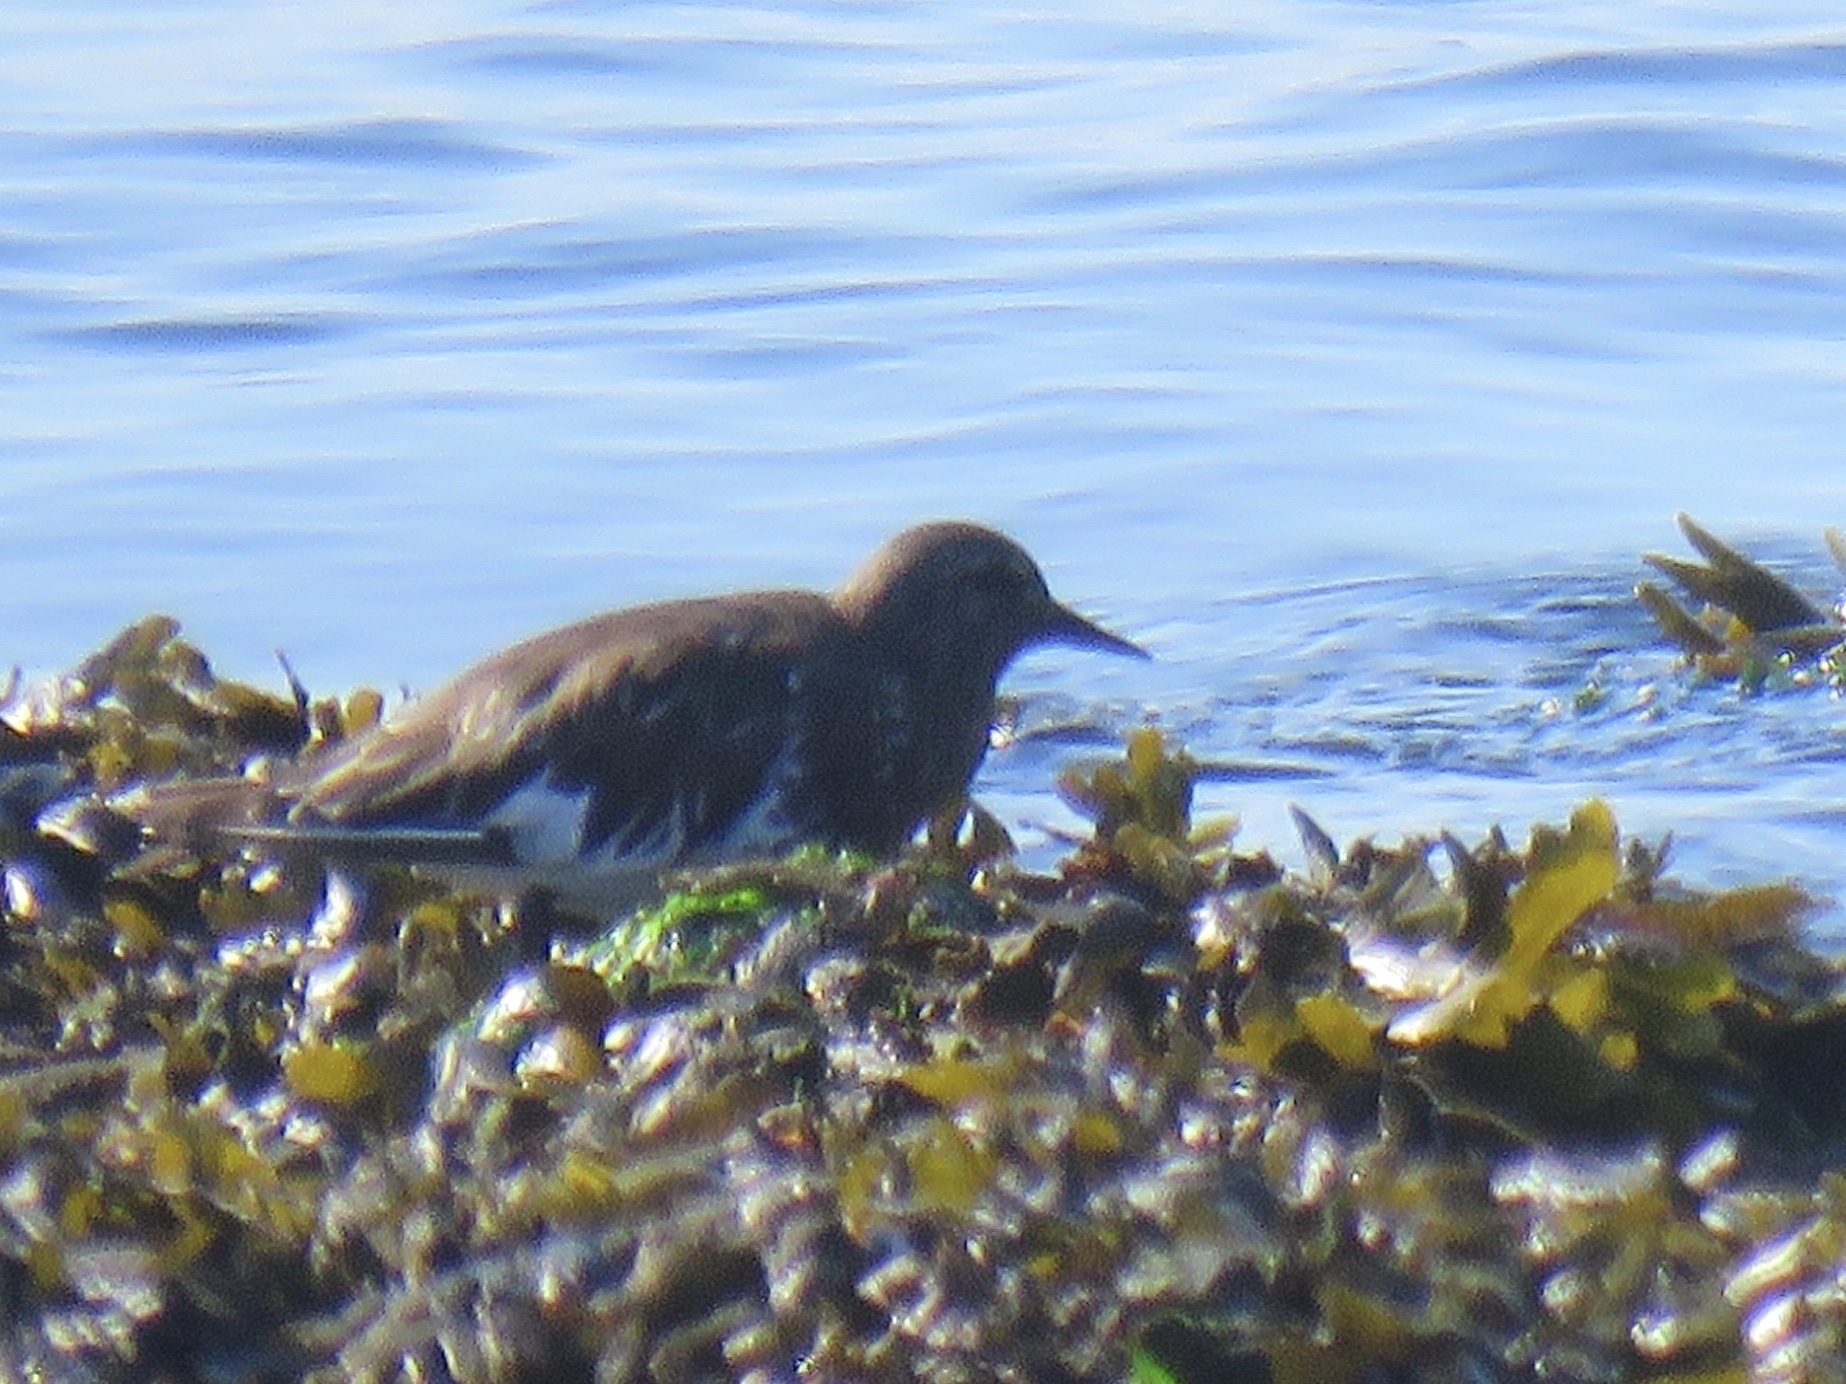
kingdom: Animalia
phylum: Chordata
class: Aves
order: Charadriiformes
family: Scolopacidae
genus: Arenaria
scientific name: Arenaria melanocephala
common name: Black turnstone
